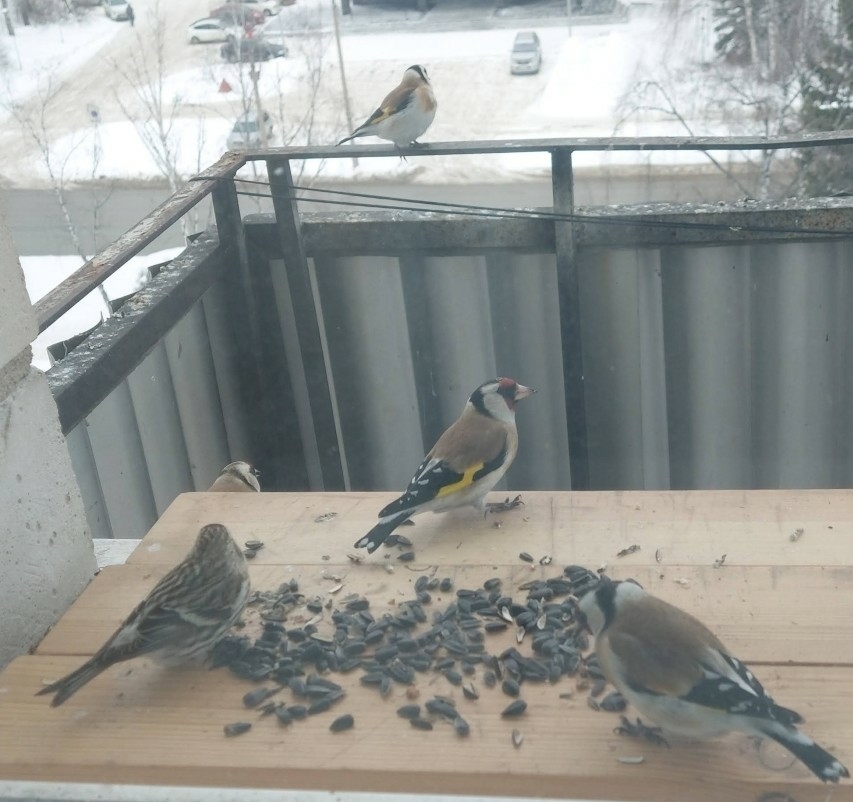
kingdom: Animalia
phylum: Chordata
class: Aves
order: Passeriformes
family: Fringillidae
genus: Carduelis
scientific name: Carduelis carduelis
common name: European goldfinch
